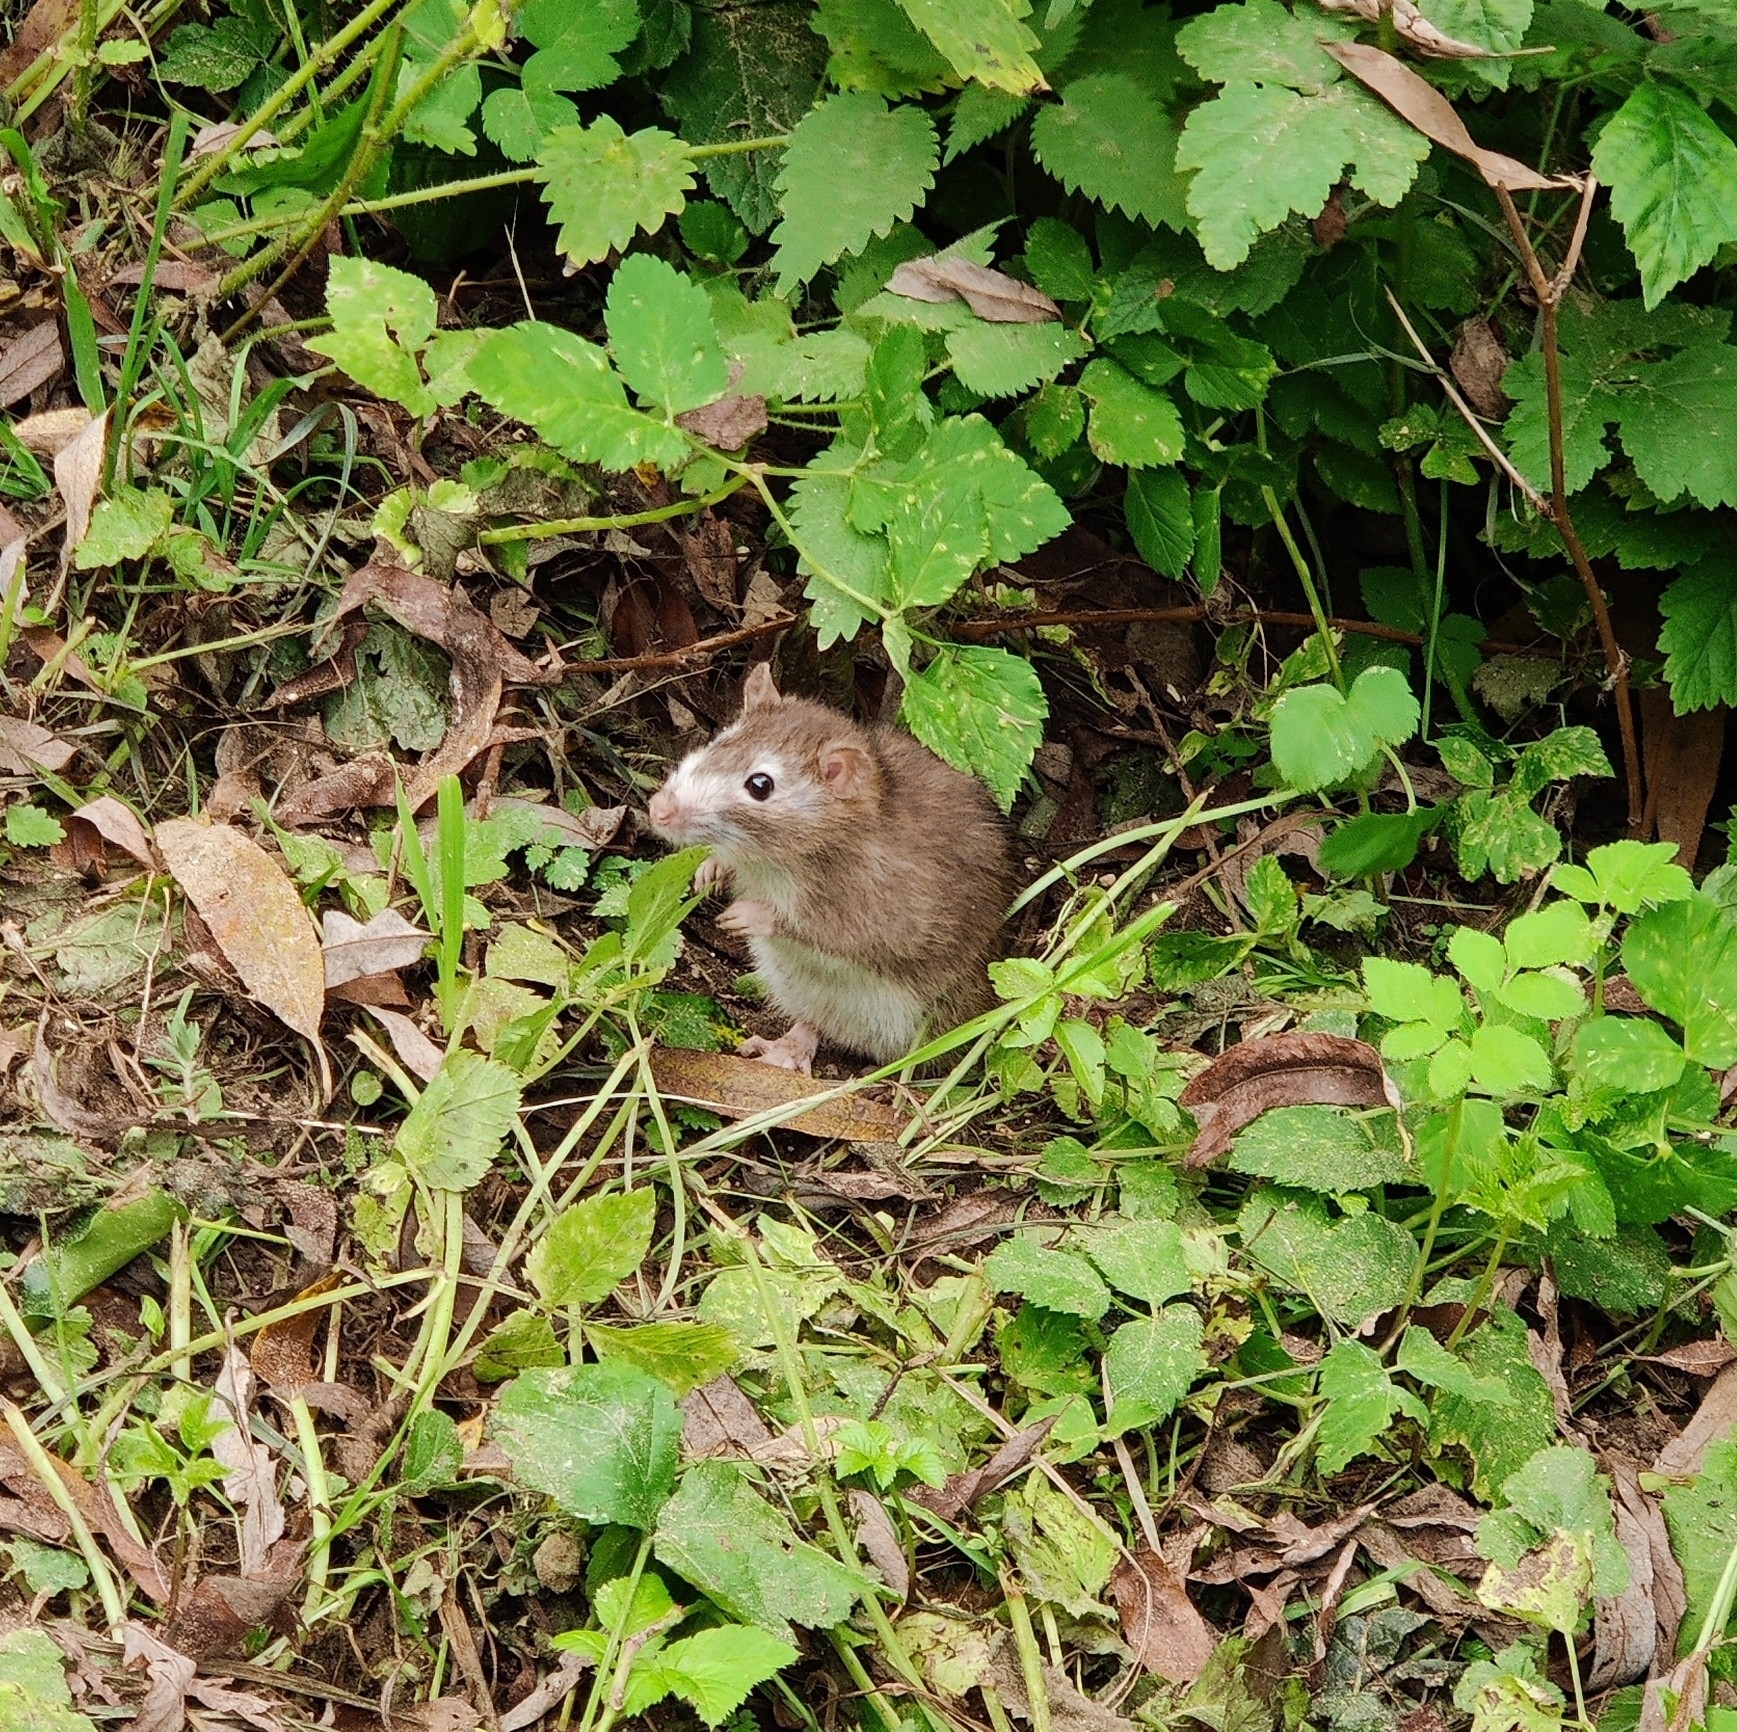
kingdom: Animalia
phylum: Chordata
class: Mammalia
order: Rodentia
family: Muridae
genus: Rattus
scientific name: Rattus norvegicus
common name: Brown rat
